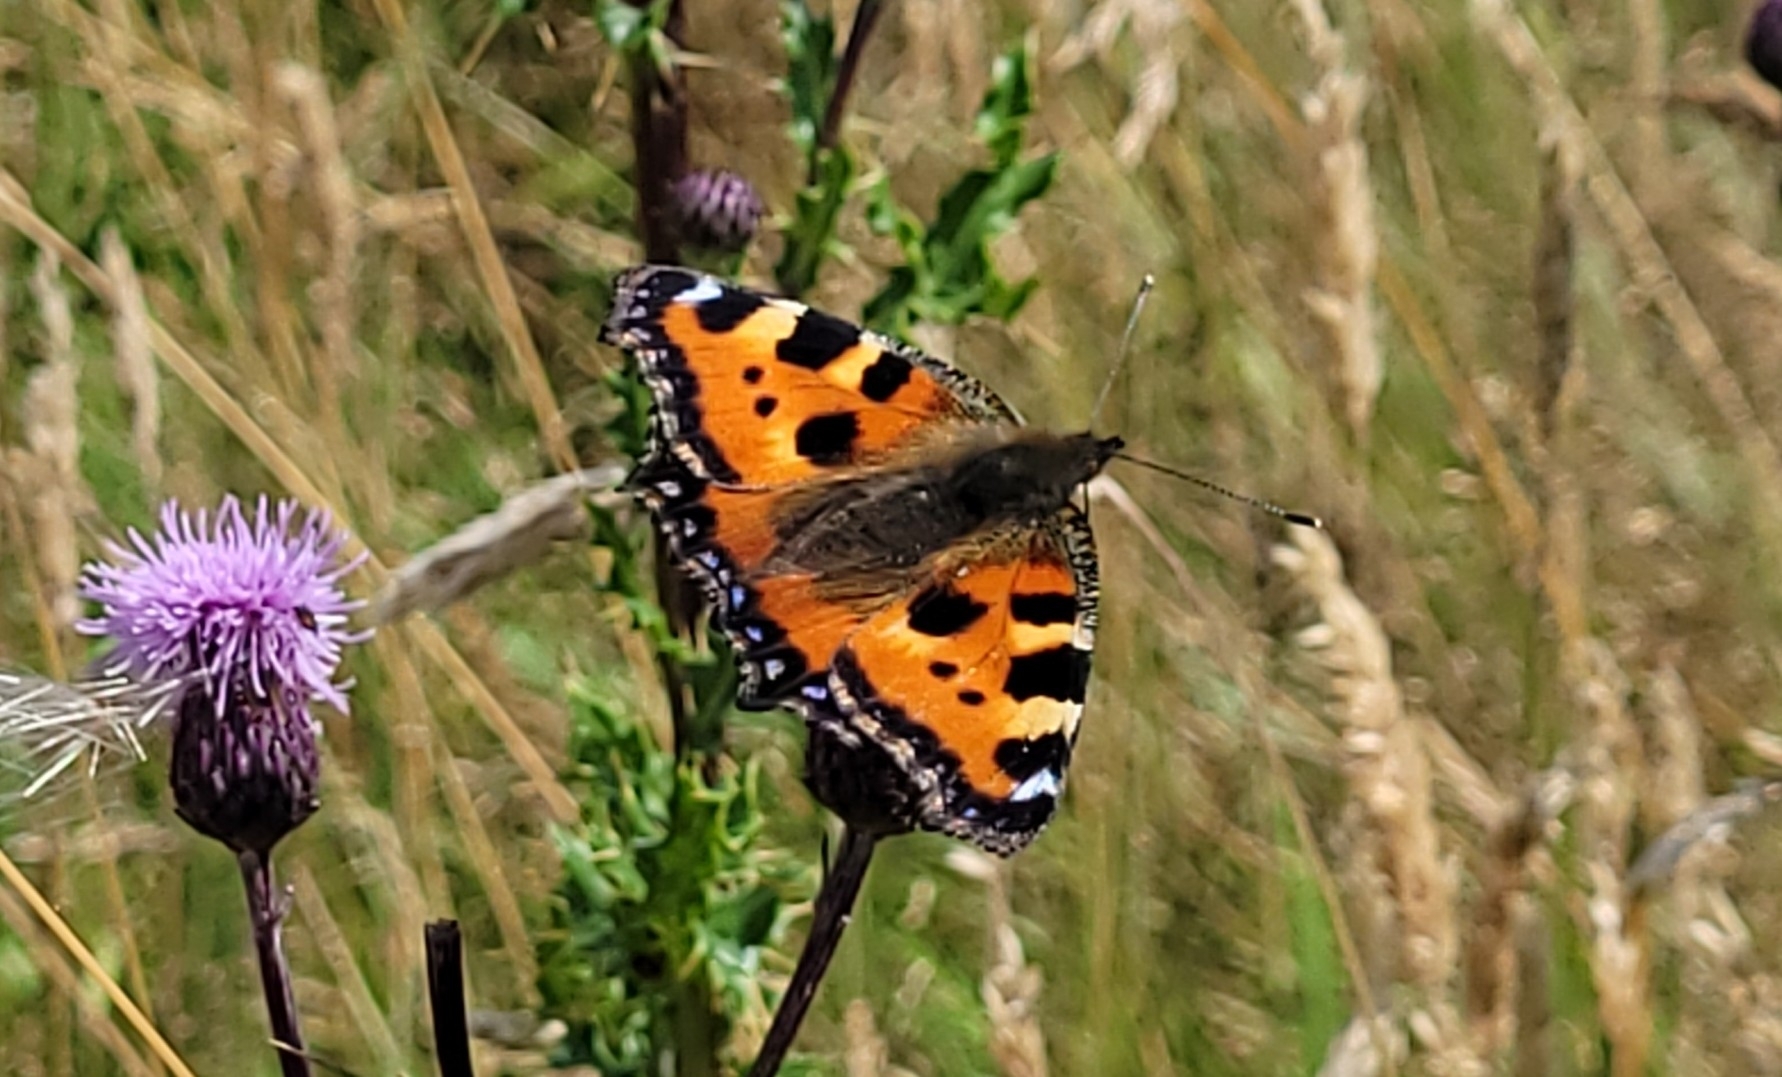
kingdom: Animalia
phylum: Arthropoda
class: Insecta
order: Lepidoptera
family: Nymphalidae
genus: Aglais
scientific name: Aglais urticae
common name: Small tortoiseshell
